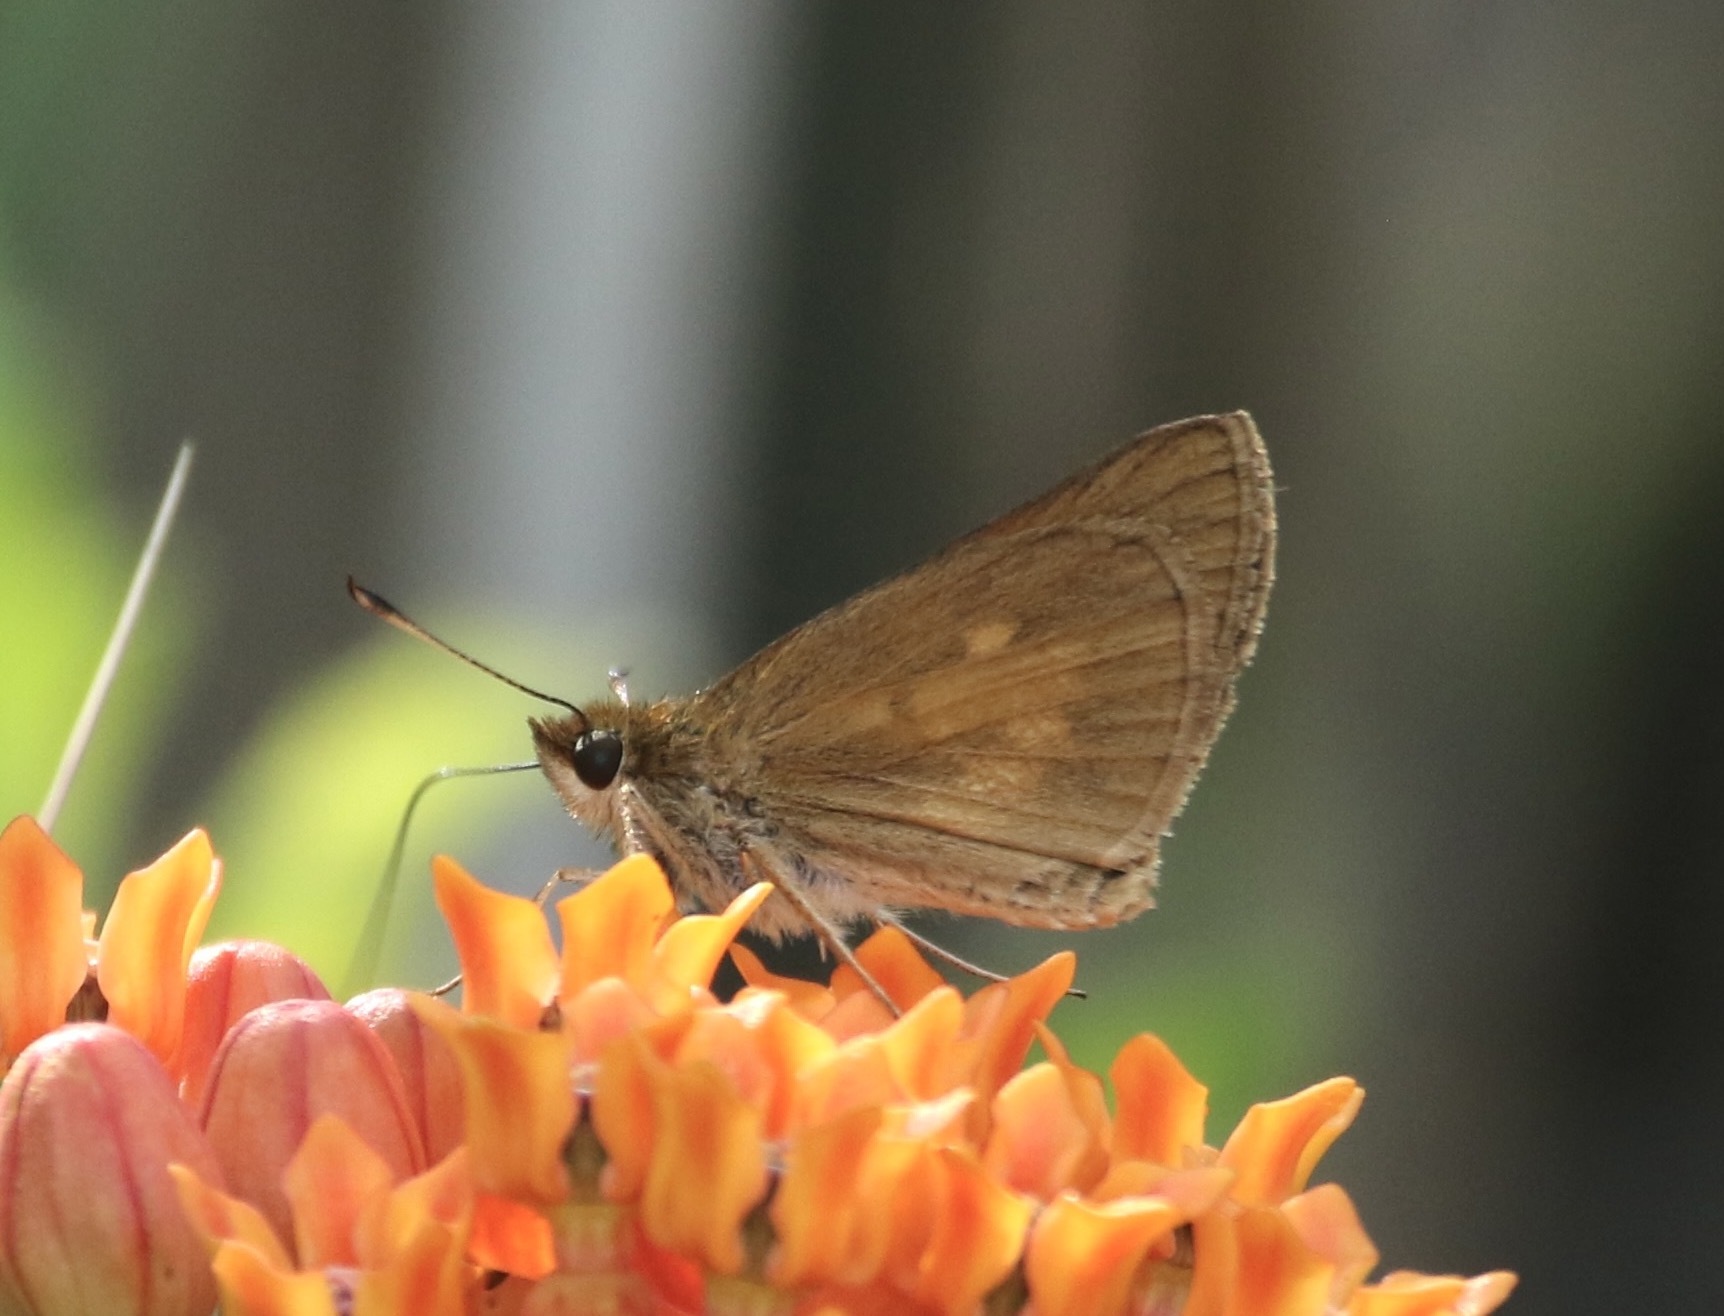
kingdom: Animalia
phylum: Arthropoda
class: Insecta
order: Lepidoptera
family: Hesperiidae
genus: Poanes
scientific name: Poanes viator
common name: Broad-winged skipper
